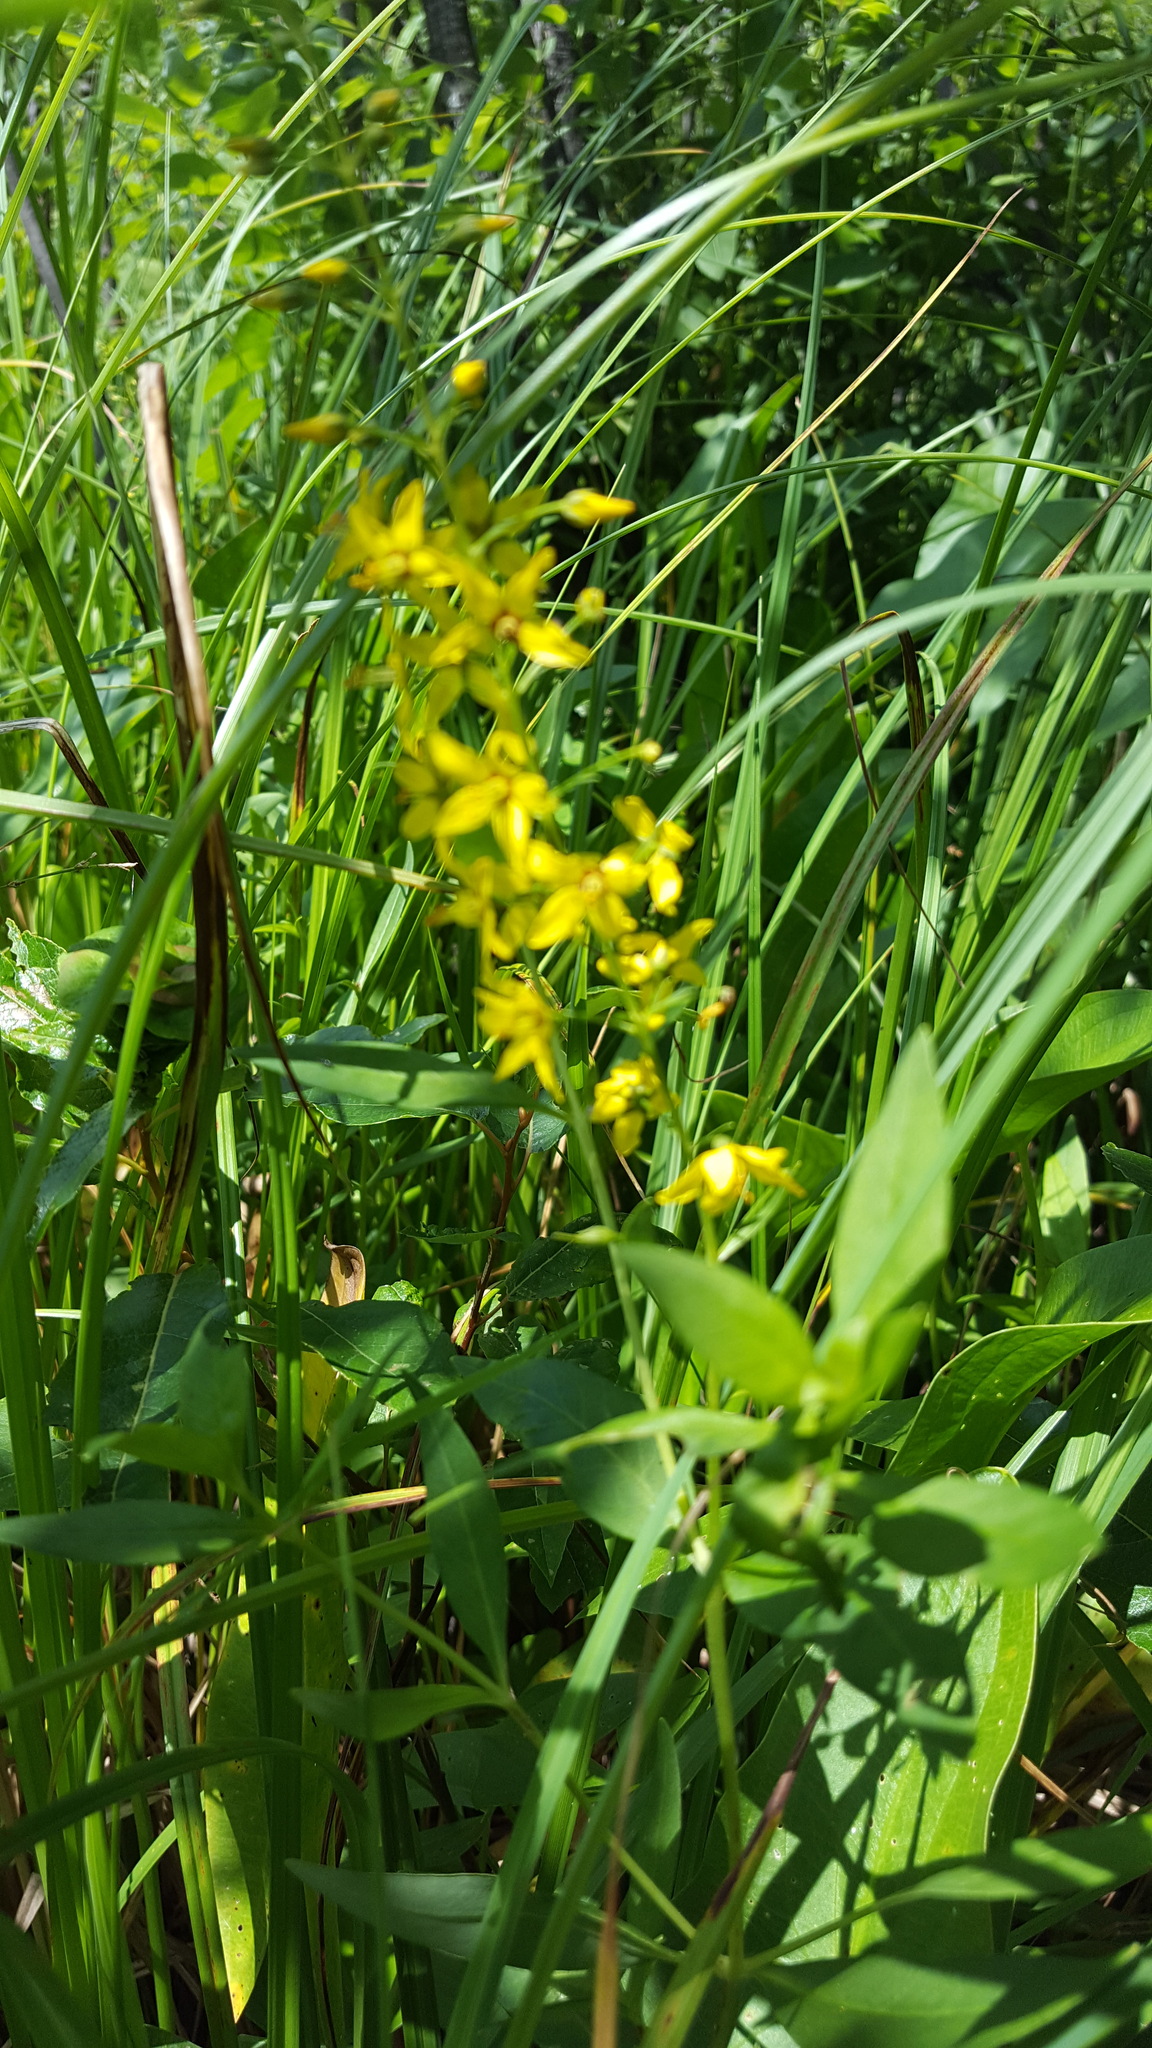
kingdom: Plantae
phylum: Tracheophyta
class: Magnoliopsida
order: Ericales
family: Primulaceae
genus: Lysimachia
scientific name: Lysimachia terrestris
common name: Lake loosestrife
